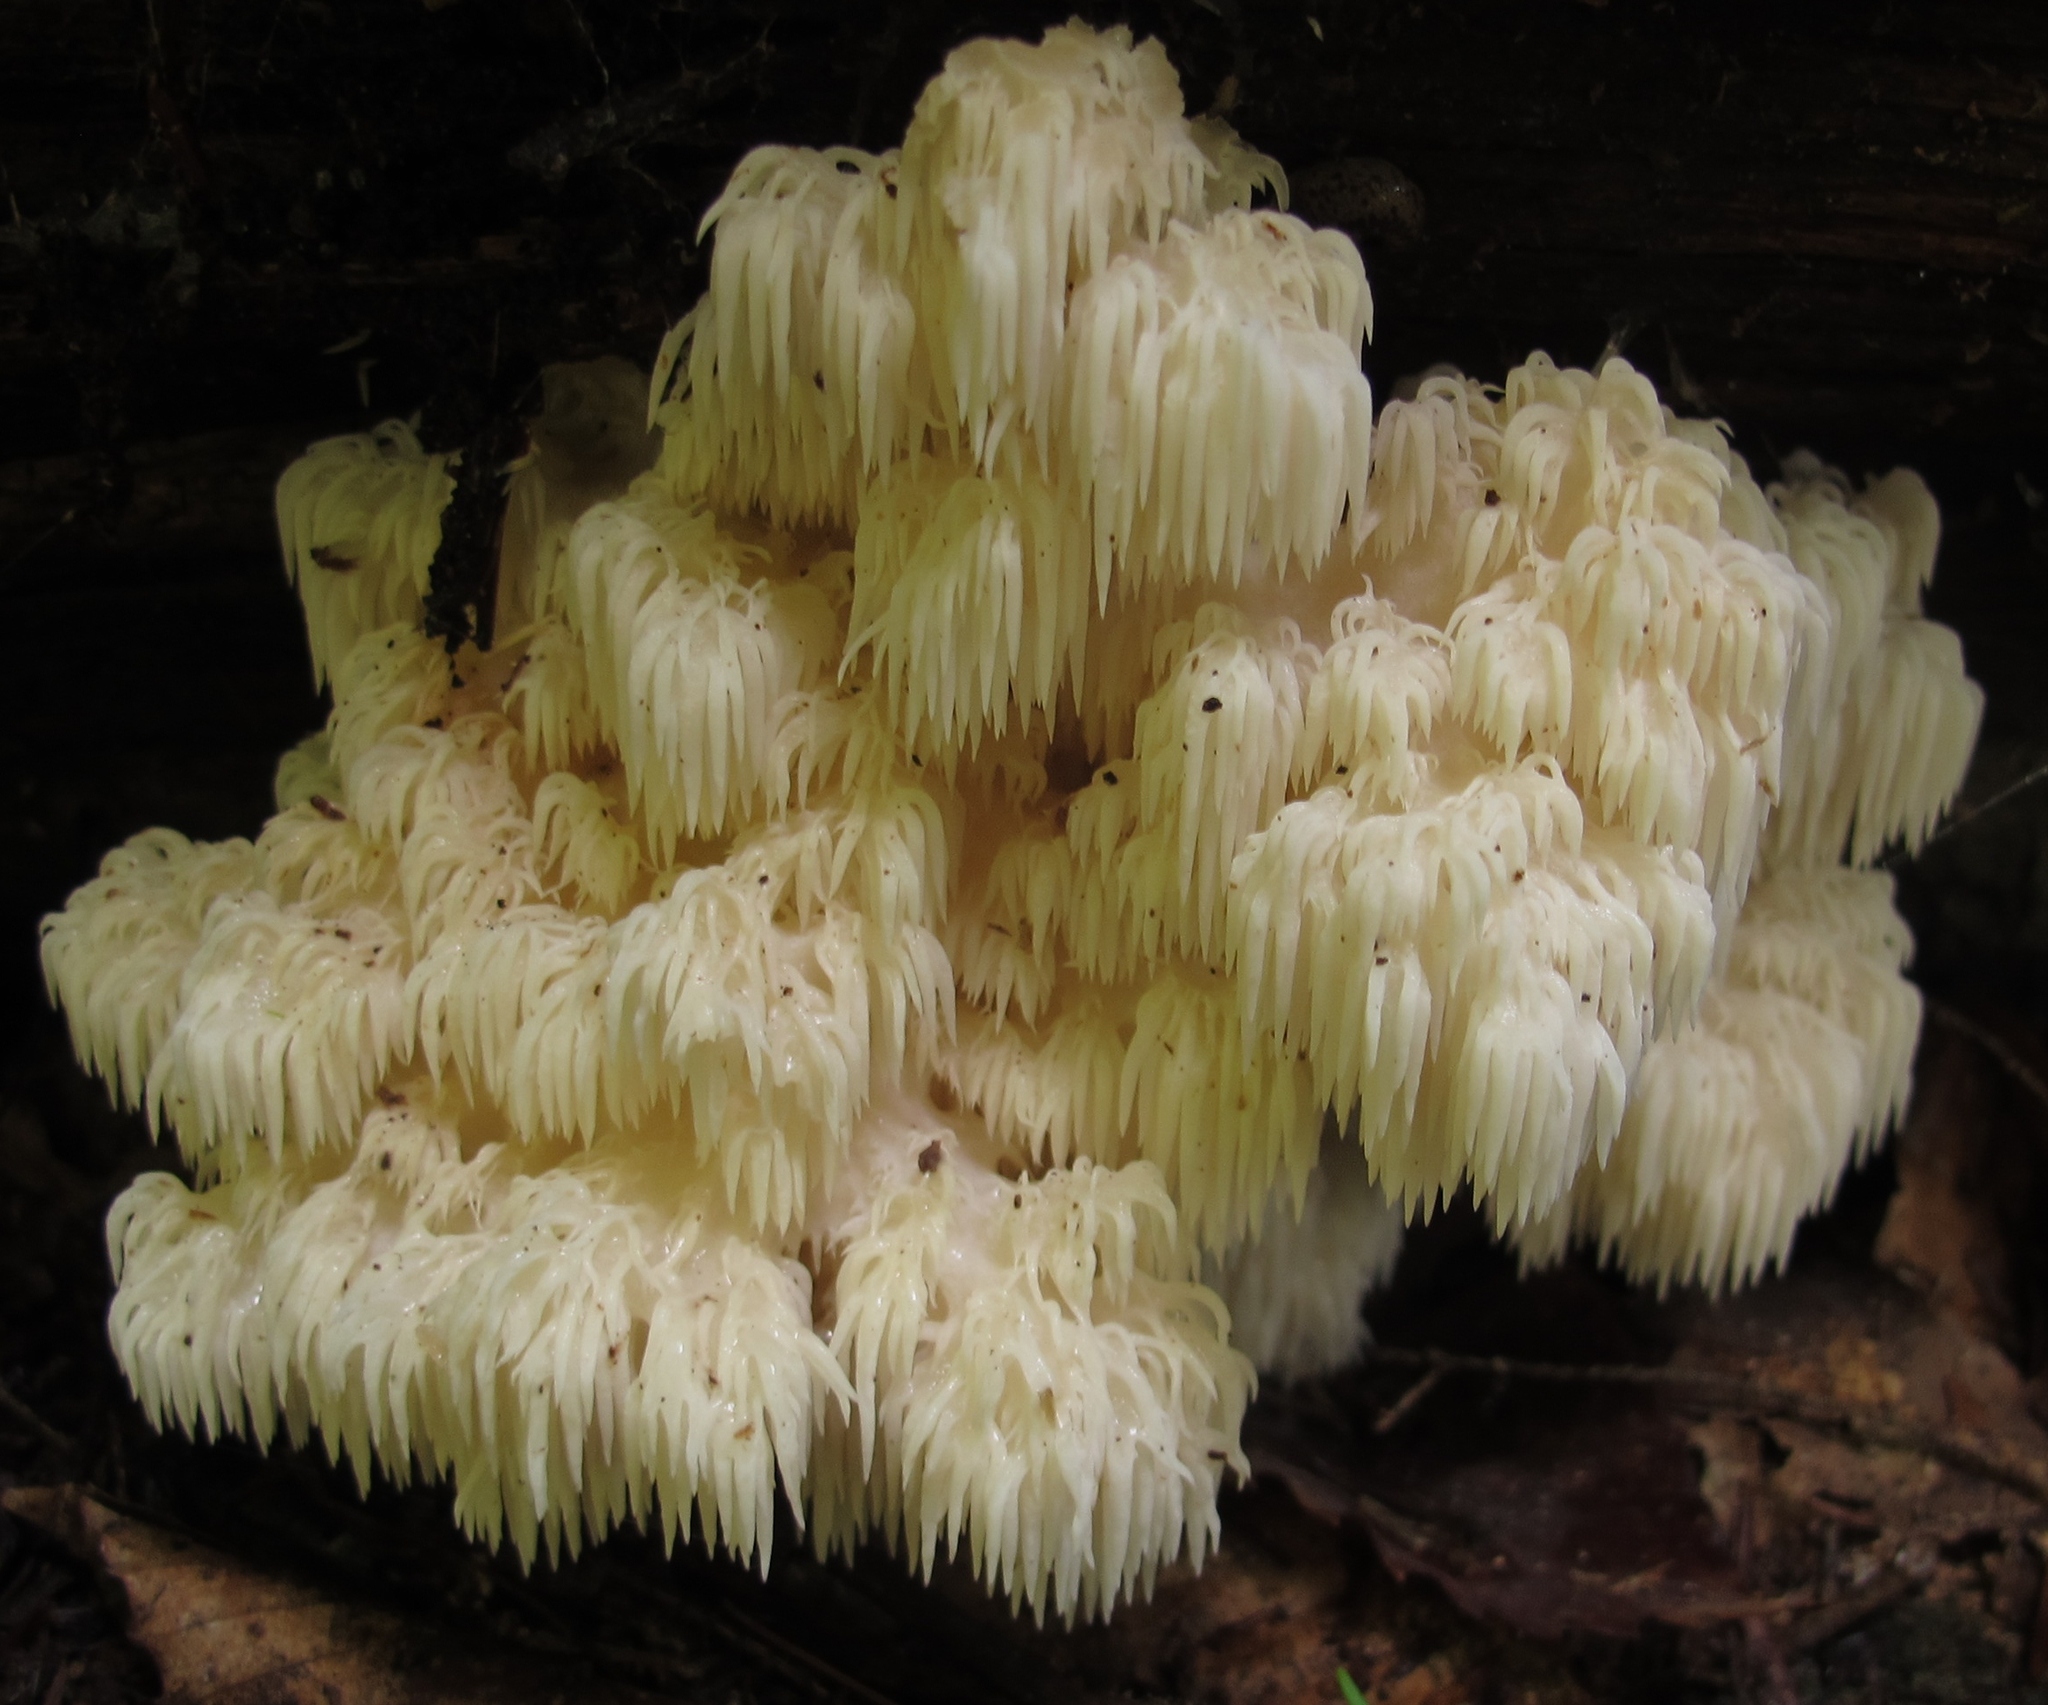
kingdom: Fungi
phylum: Basidiomycota
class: Agaricomycetes
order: Russulales
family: Hericiaceae
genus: Hericium
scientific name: Hericium americanum
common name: Bear's head tooth
